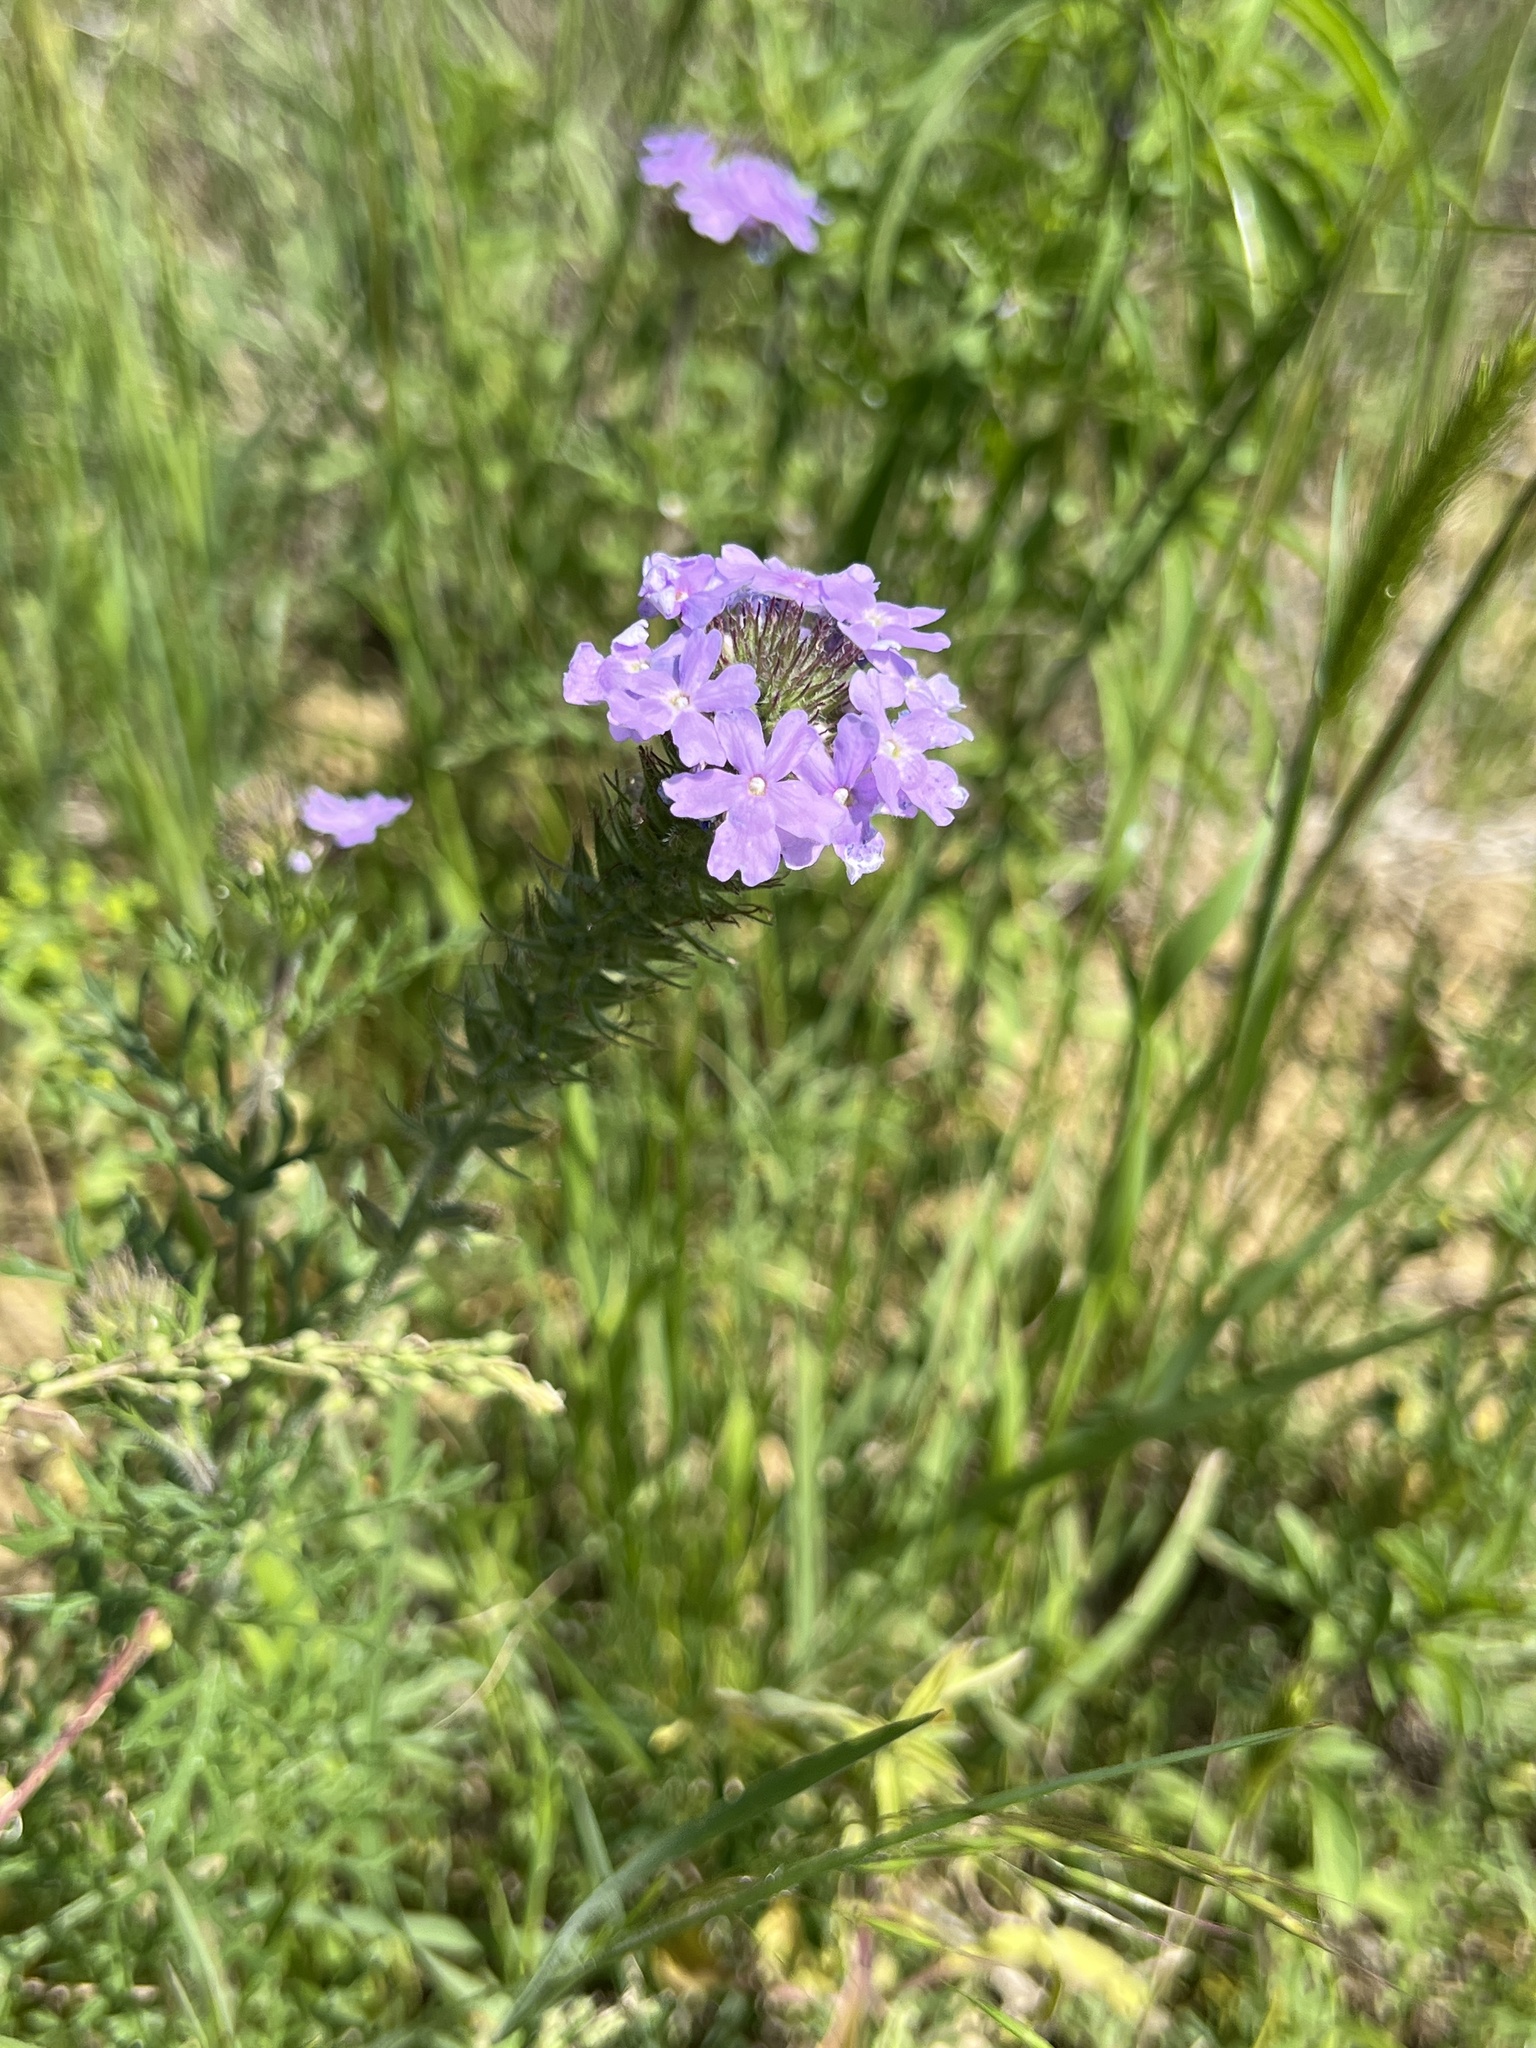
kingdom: Plantae
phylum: Tracheophyta
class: Magnoliopsida
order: Lamiales
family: Verbenaceae
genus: Verbena
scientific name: Verbena bipinnatifida
